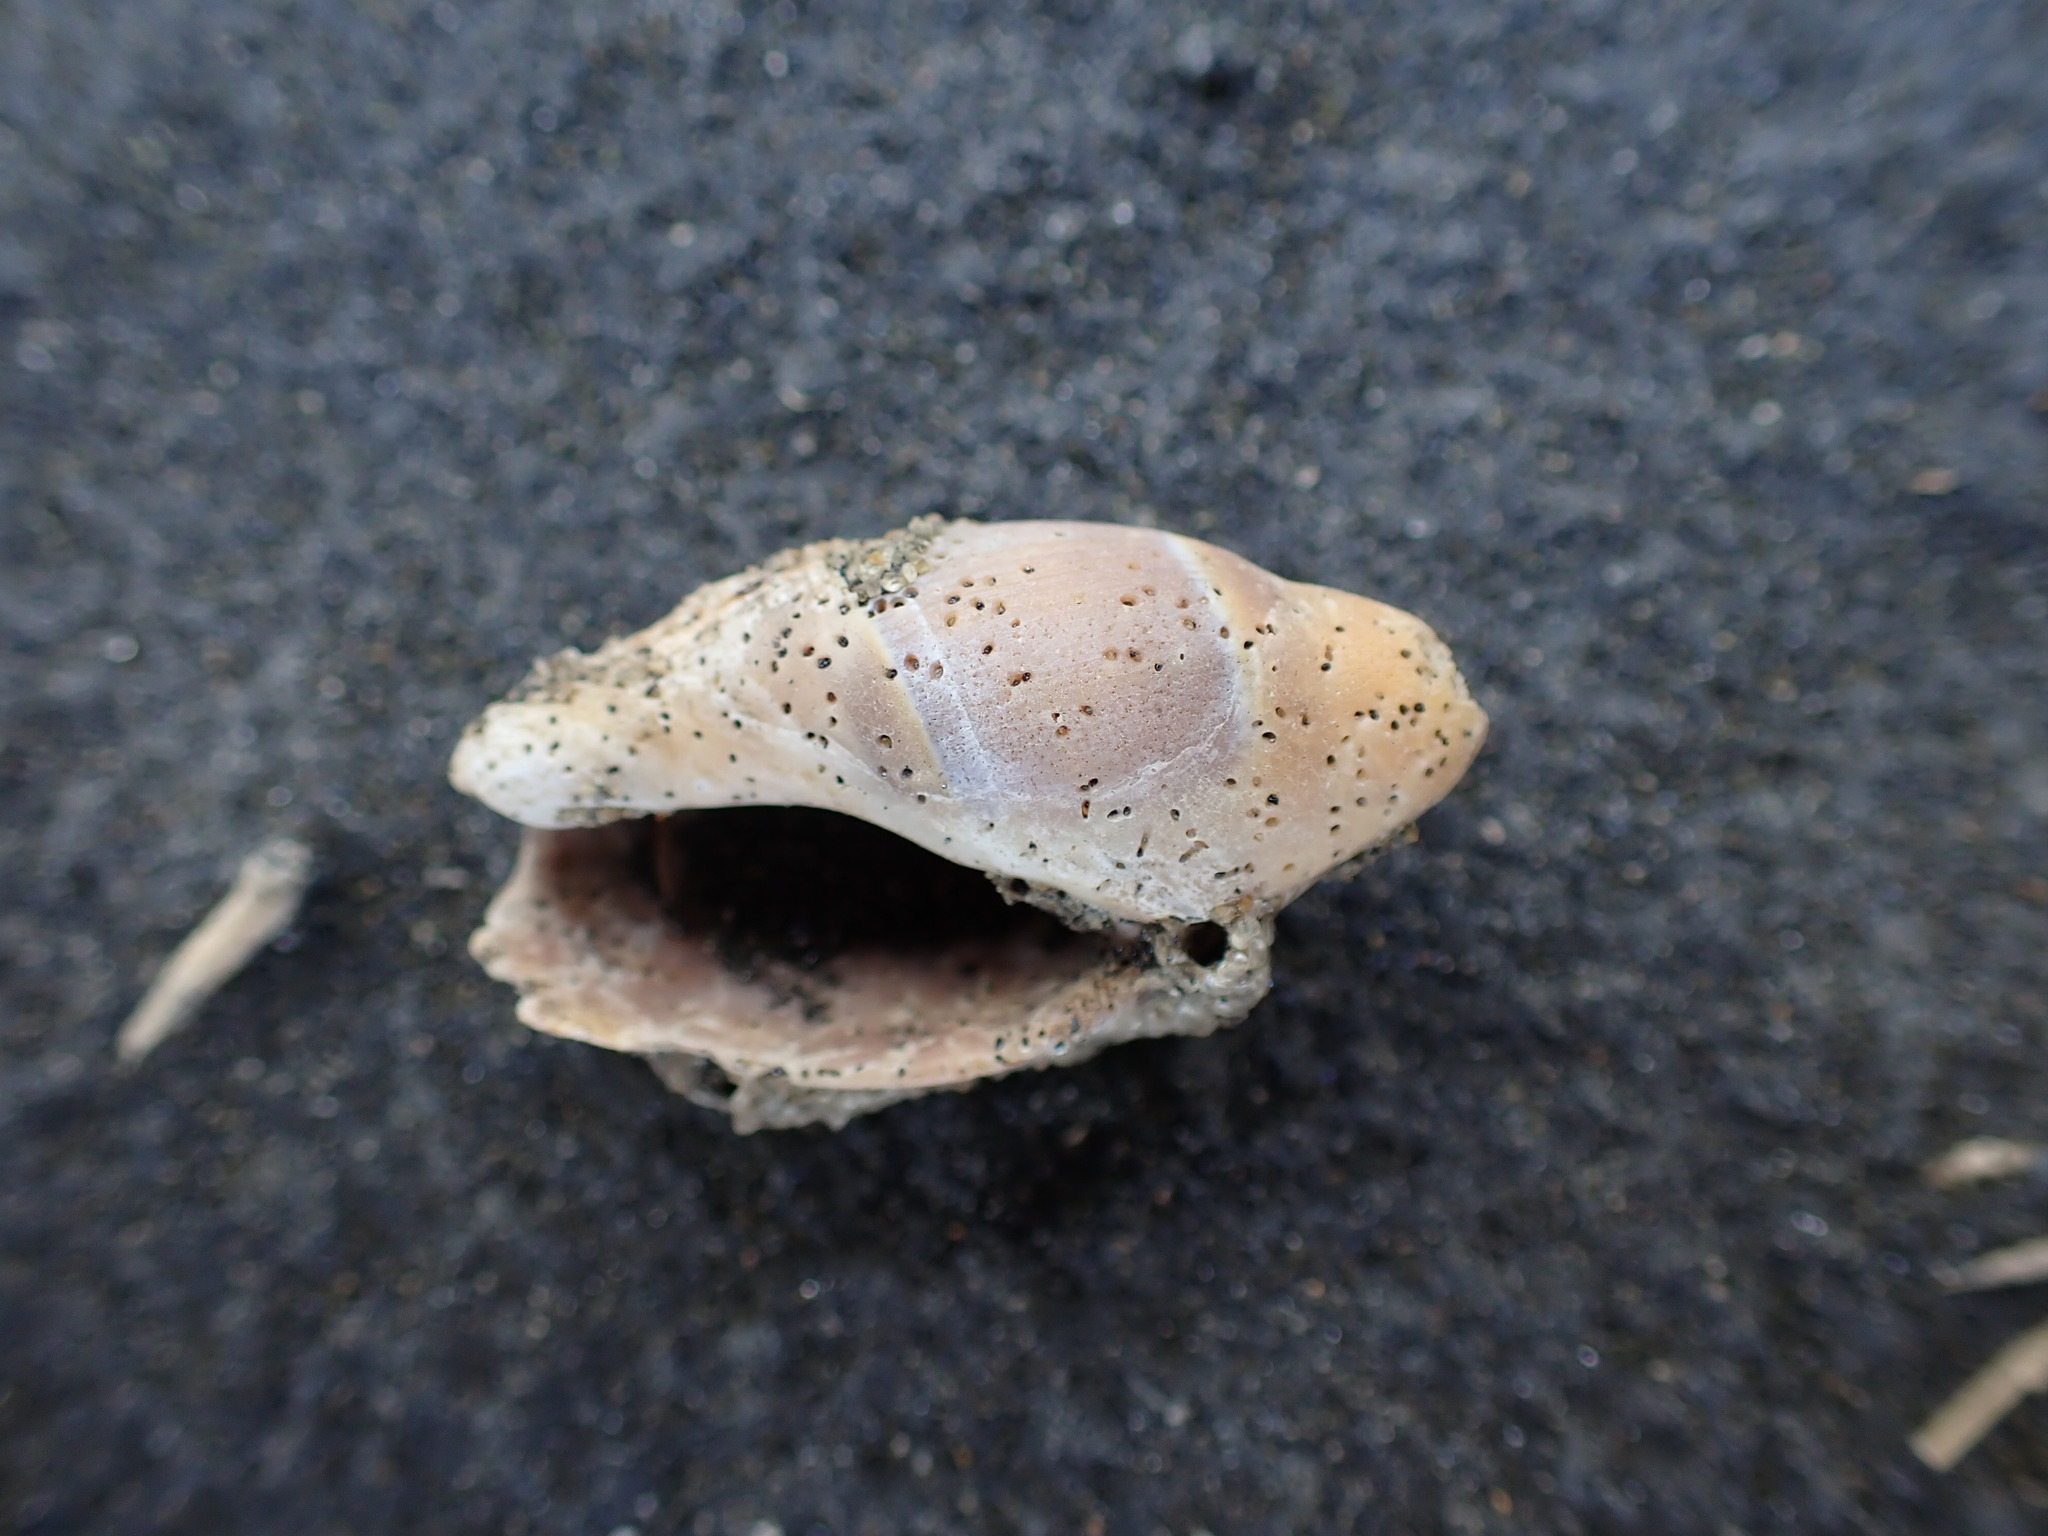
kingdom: Animalia
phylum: Mollusca
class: Gastropoda
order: Neogastropoda
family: Ancillariidae
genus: Amalda
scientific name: Amalda australis
